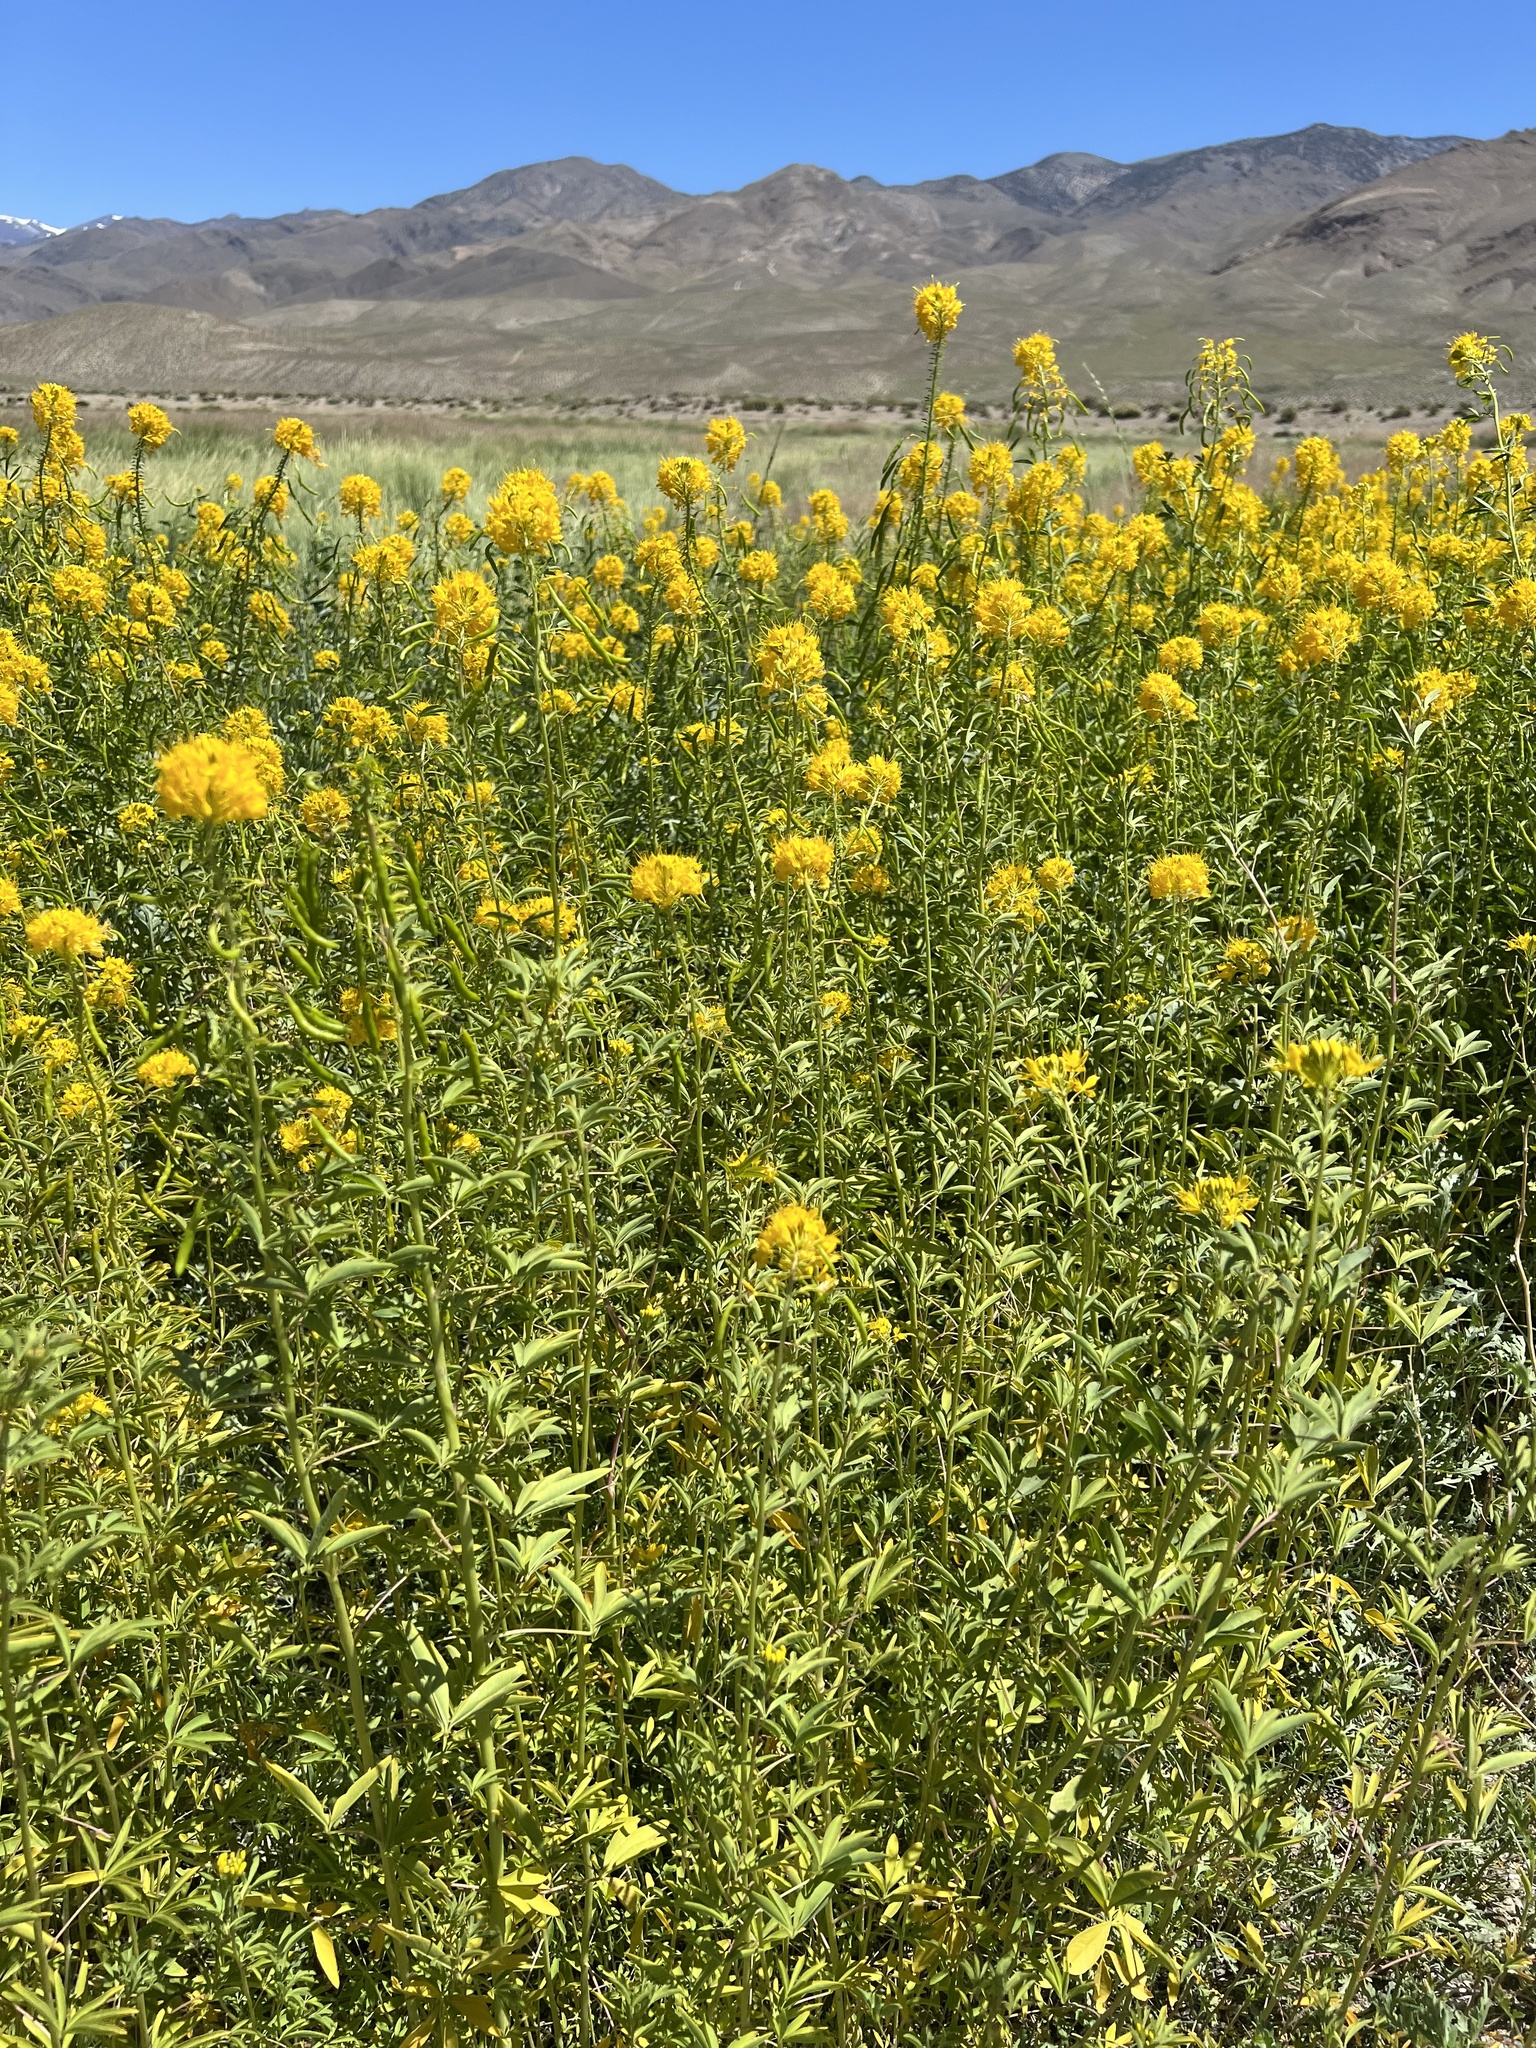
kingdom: Plantae
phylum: Tracheophyta
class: Magnoliopsida
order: Brassicales
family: Cleomaceae
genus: Cleomella
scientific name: Cleomella lutea
